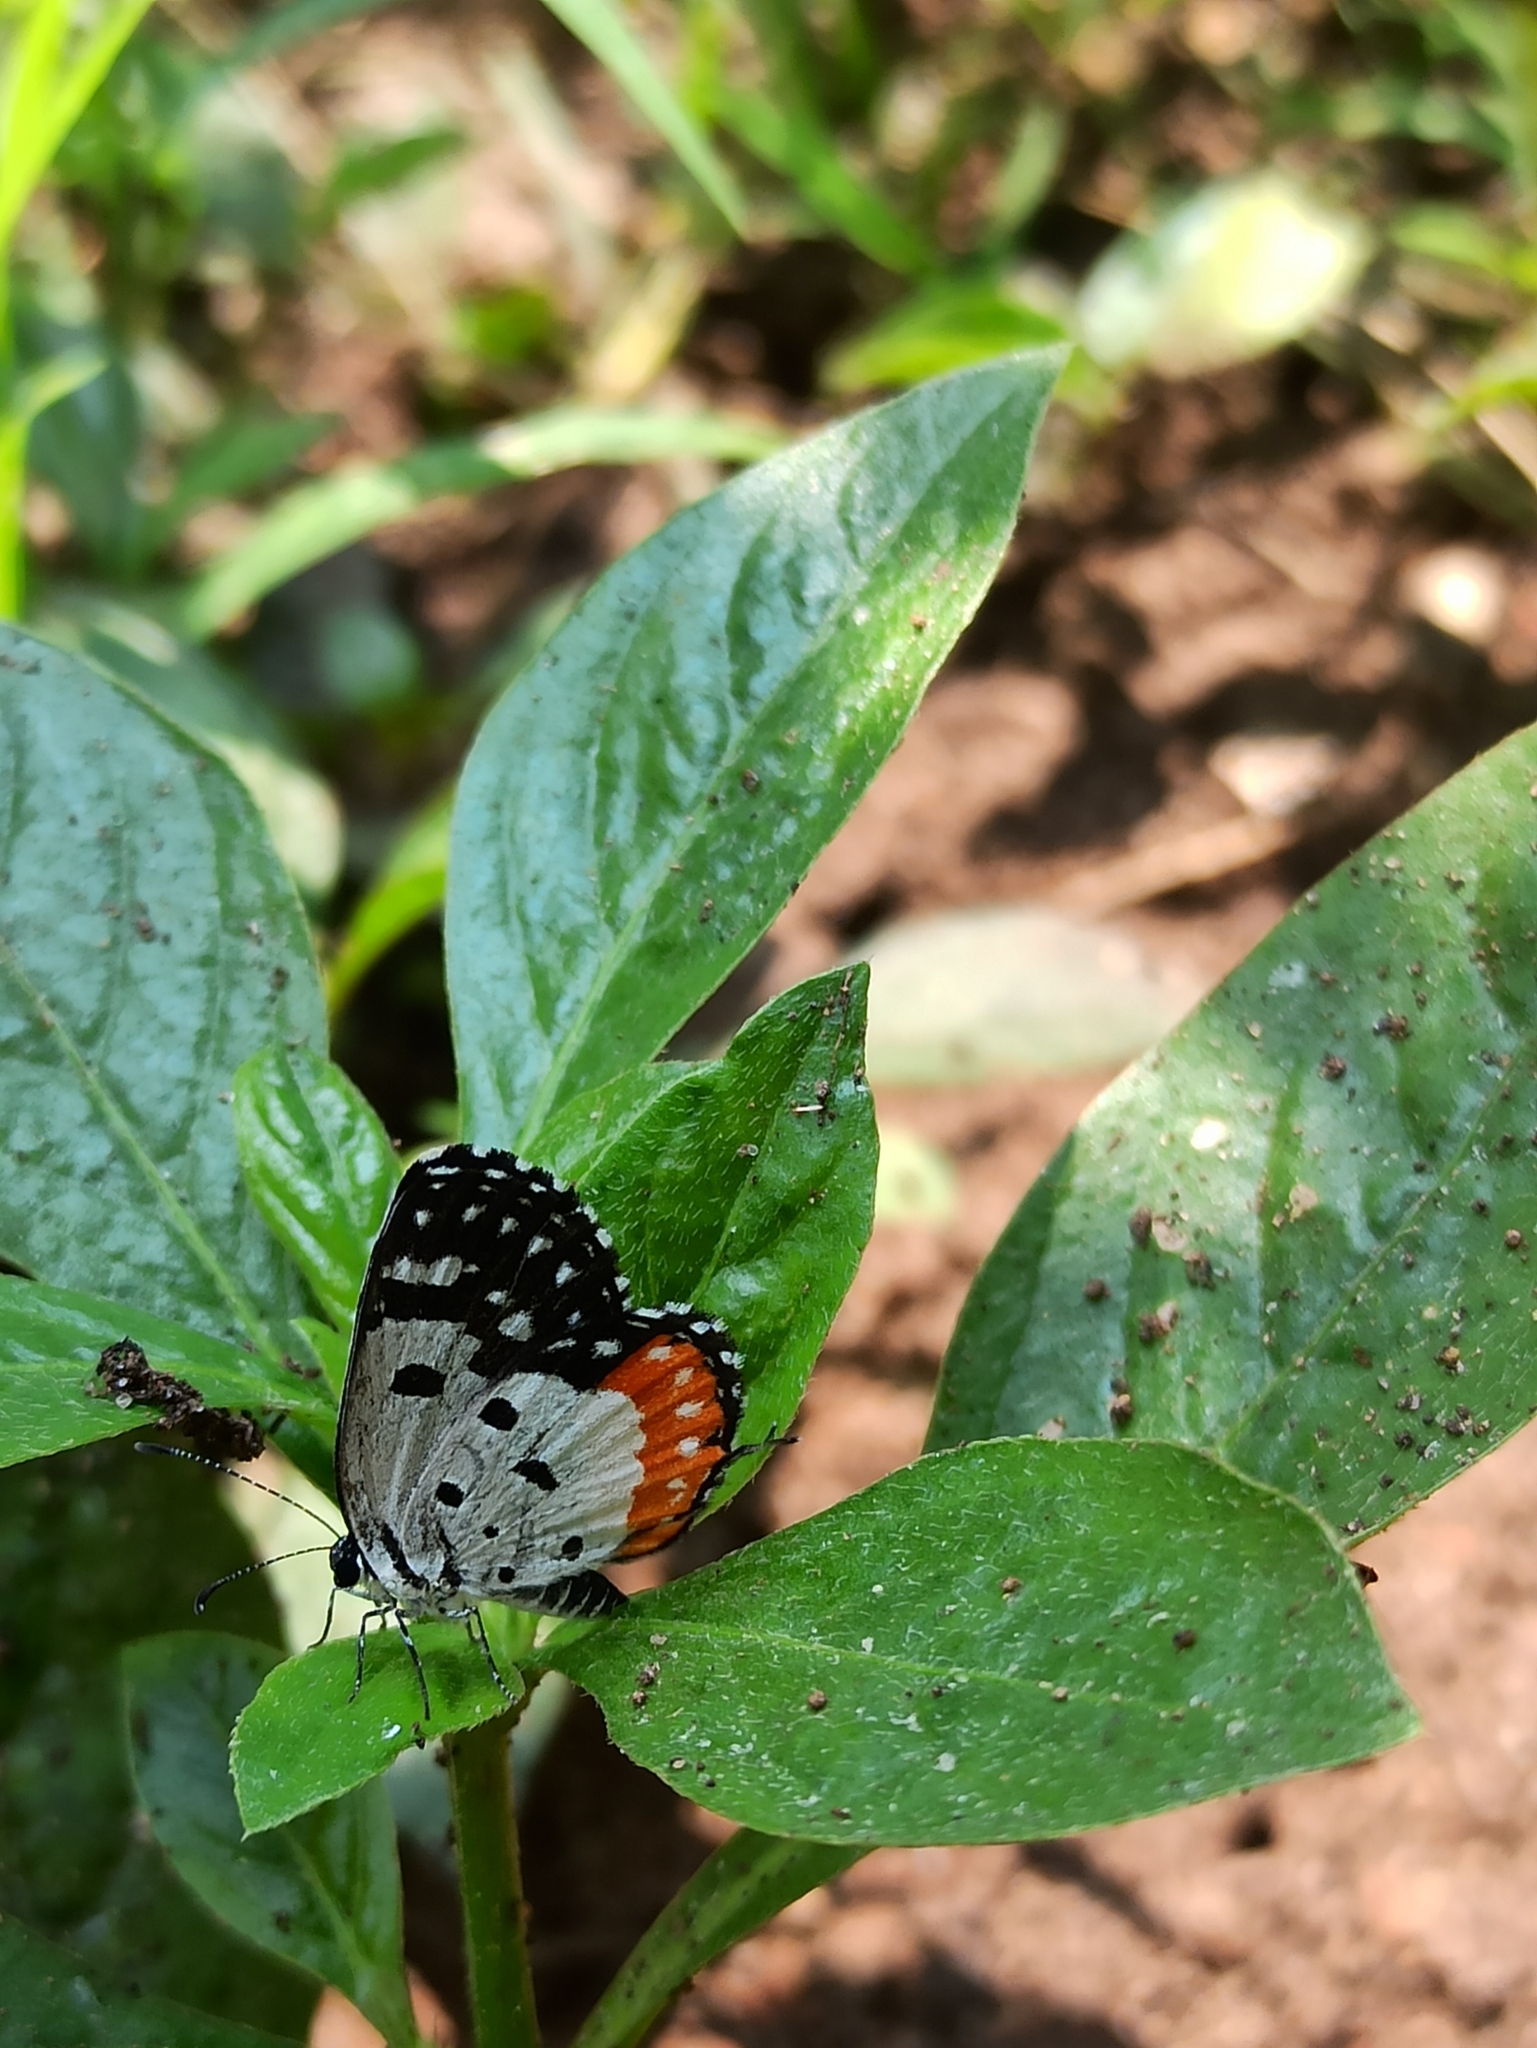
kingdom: Animalia
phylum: Arthropoda
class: Insecta
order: Lepidoptera
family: Lycaenidae
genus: Talicada
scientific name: Talicada nyseus
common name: Red pierrot
